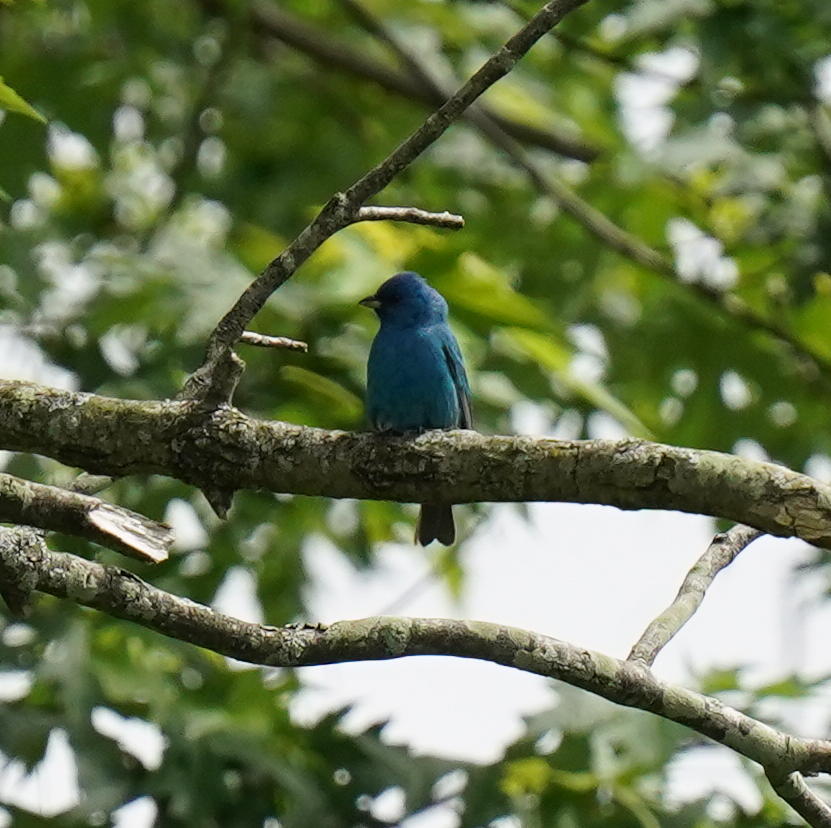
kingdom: Animalia
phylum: Chordata
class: Aves
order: Passeriformes
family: Cardinalidae
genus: Passerina
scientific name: Passerina cyanea
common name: Indigo bunting
